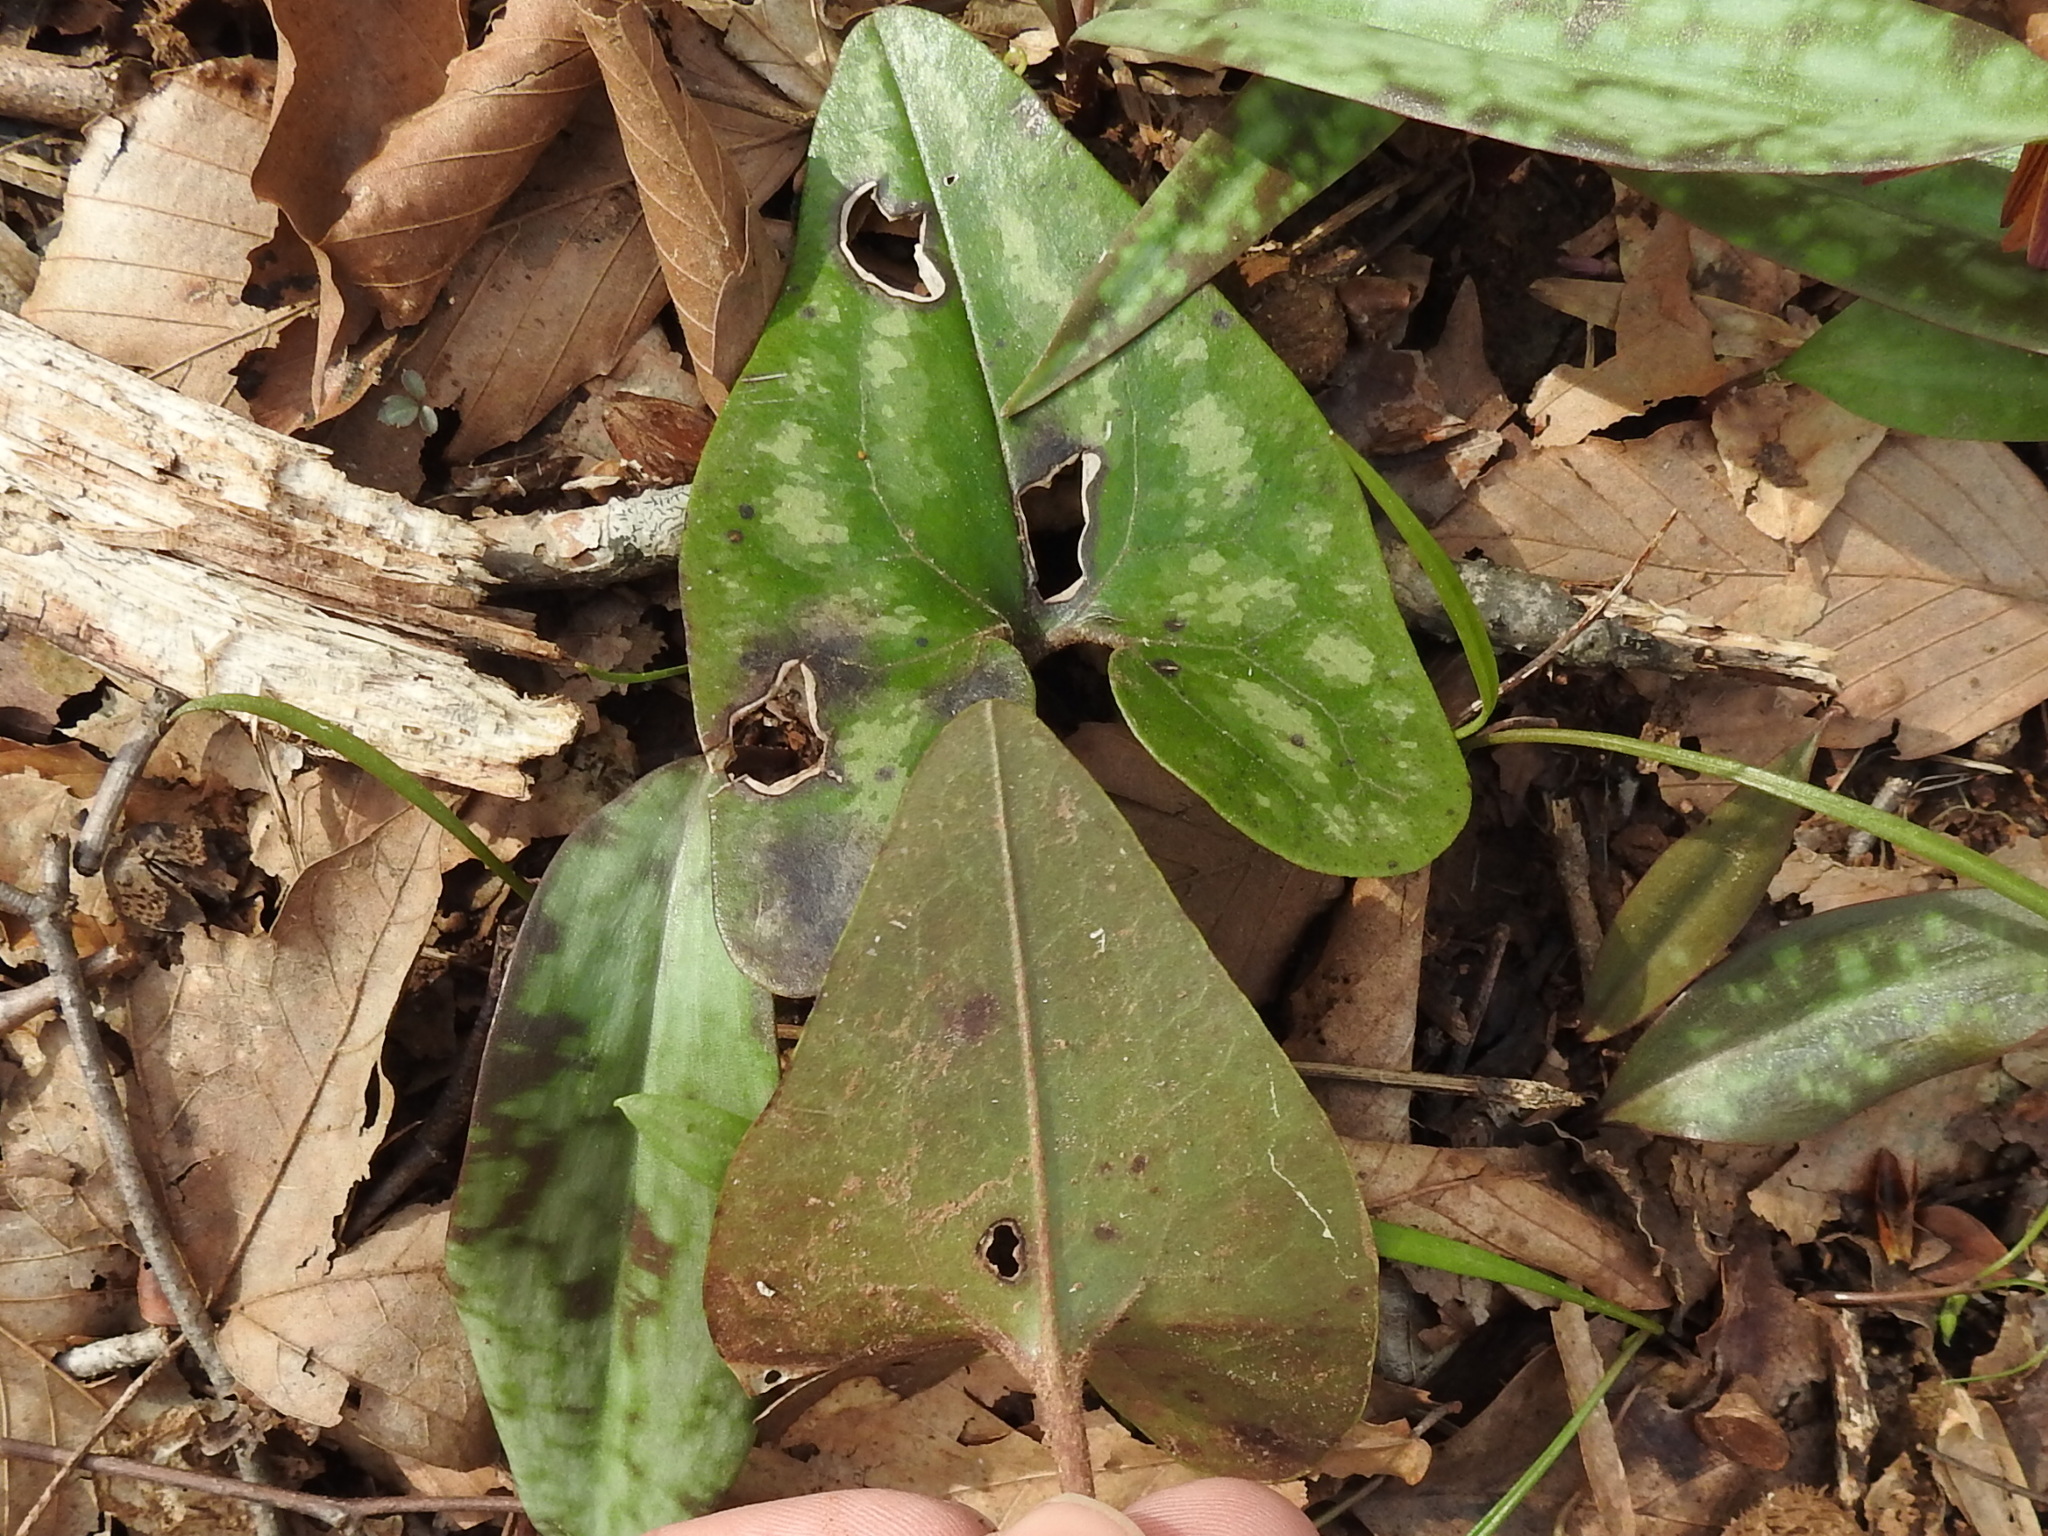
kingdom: Plantae
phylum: Tracheophyta
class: Magnoliopsida
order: Piperales
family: Aristolochiaceae
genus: Hexastylis
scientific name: Hexastylis arifolia
